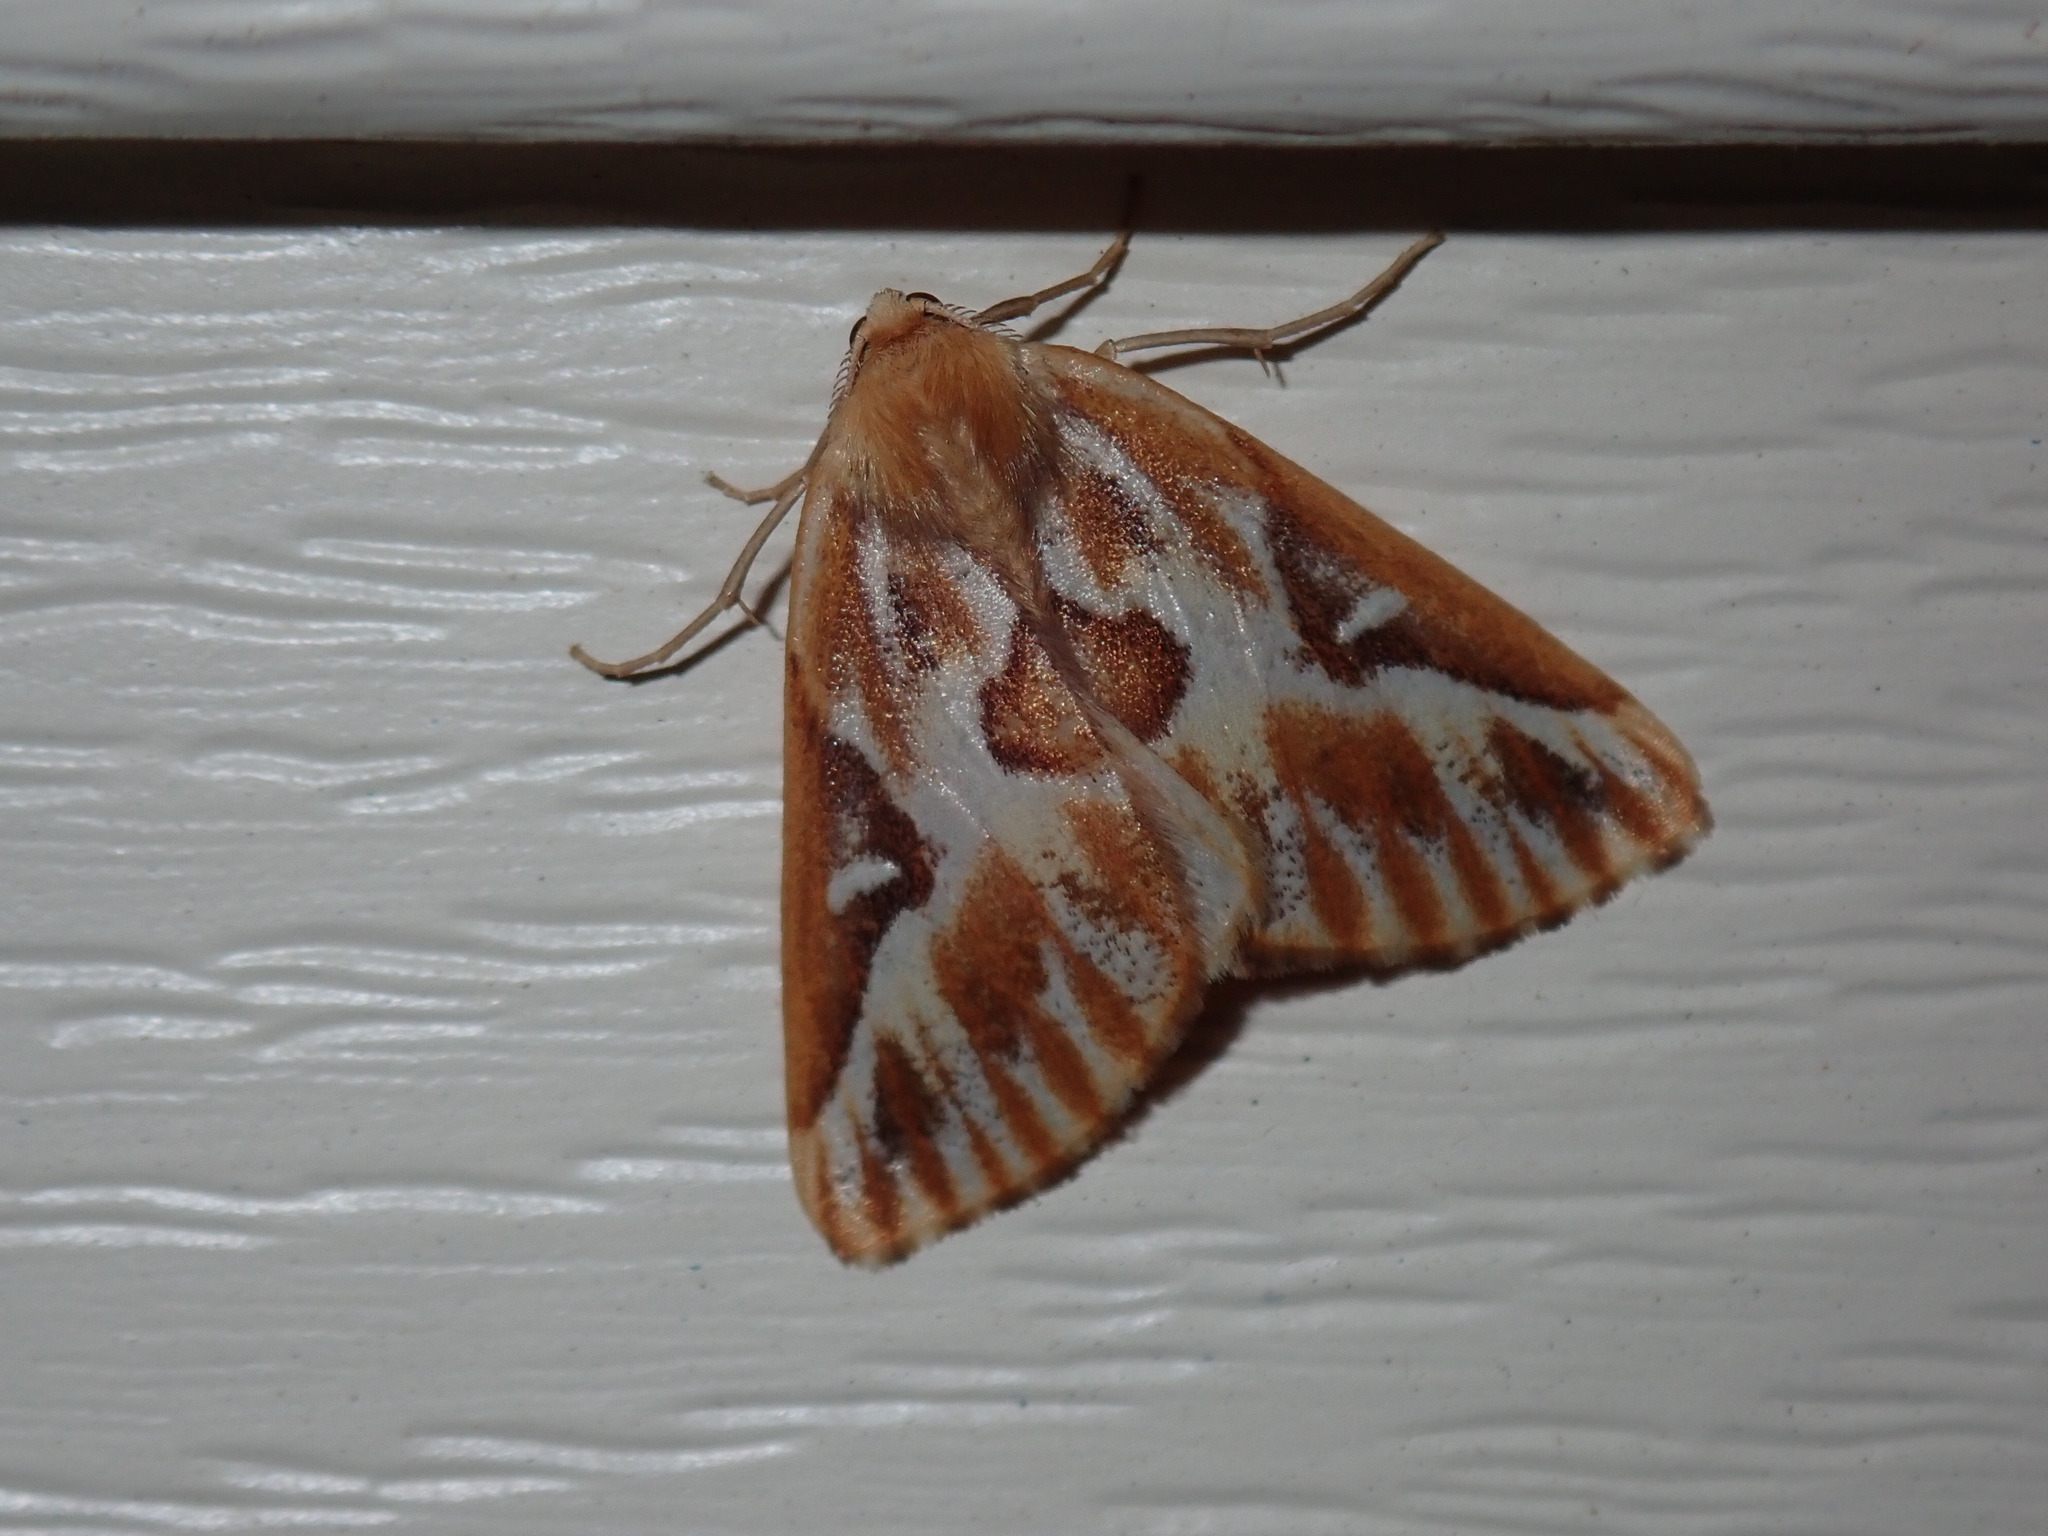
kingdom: Animalia
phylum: Arthropoda
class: Insecta
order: Lepidoptera
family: Geometridae
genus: Caripeta
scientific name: Caripeta piniata
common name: Northern pine looper moth
